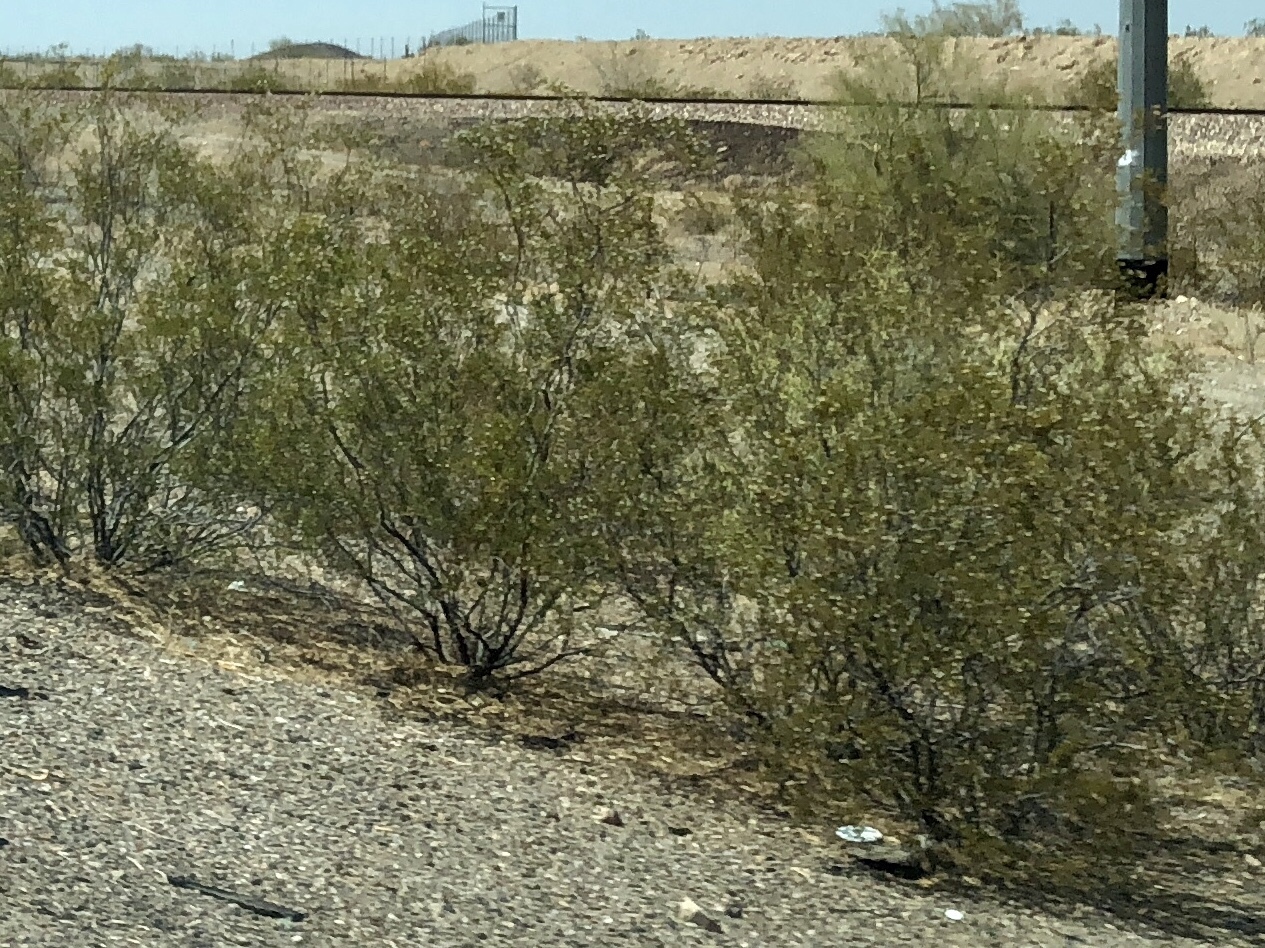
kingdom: Plantae
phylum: Tracheophyta
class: Magnoliopsida
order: Zygophyllales
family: Zygophyllaceae
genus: Larrea
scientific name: Larrea tridentata
